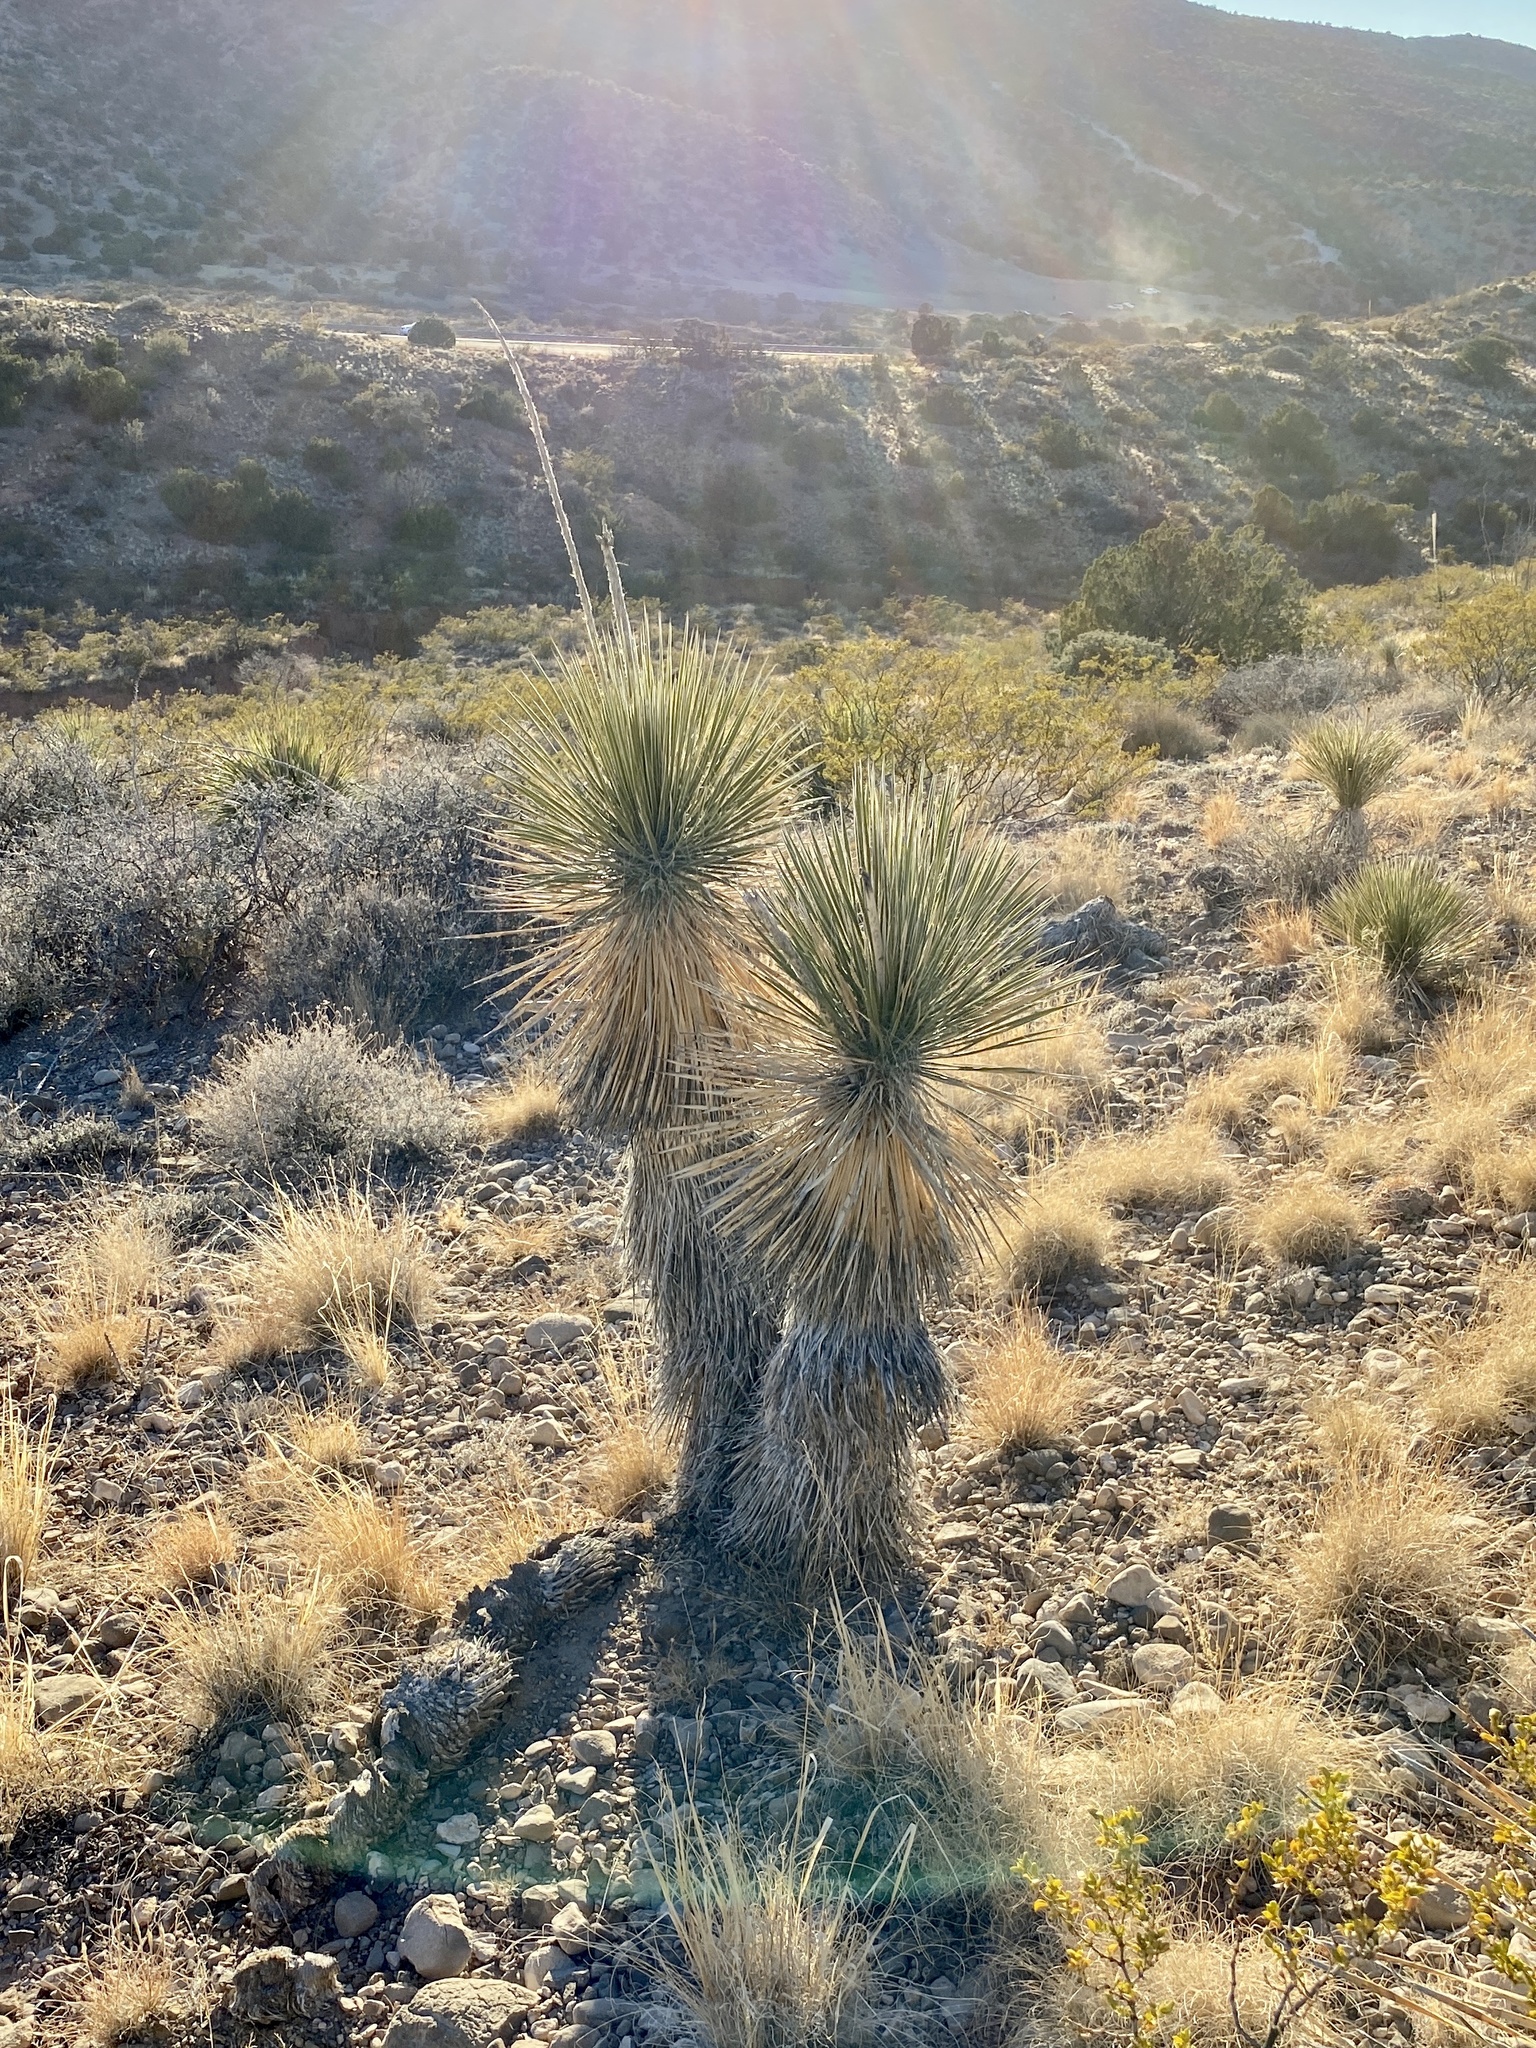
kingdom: Plantae
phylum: Tracheophyta
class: Liliopsida
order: Asparagales
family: Asparagaceae
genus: Yucca
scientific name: Yucca elata
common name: Palmella
